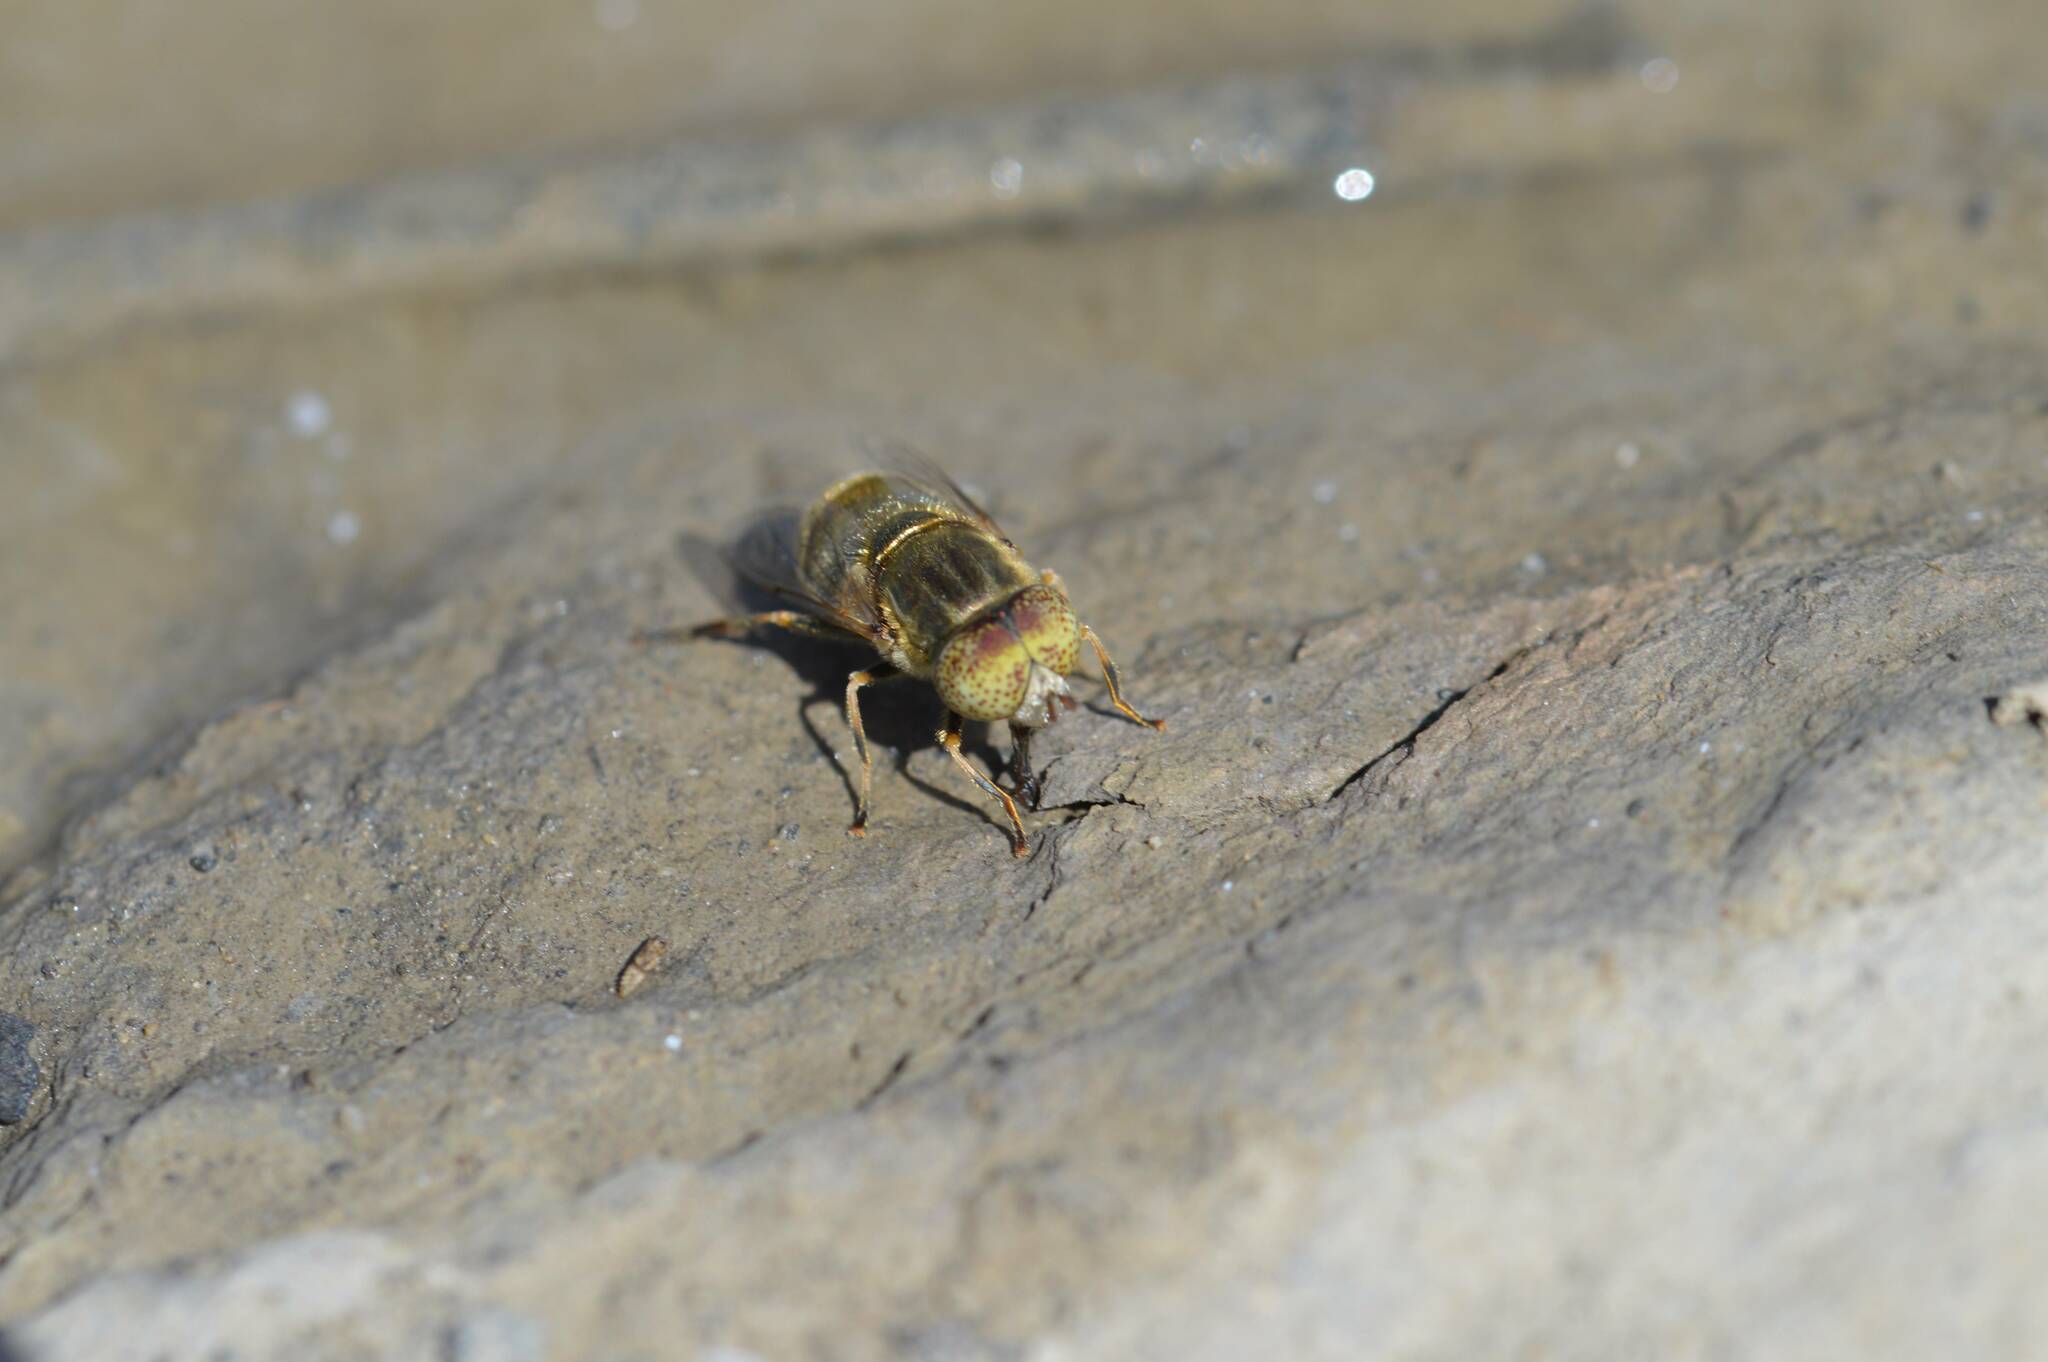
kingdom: Animalia
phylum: Arthropoda
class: Insecta
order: Diptera
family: Syrphidae
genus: Eristalinus
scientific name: Eristalinus aeneus
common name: Syrphid fly
